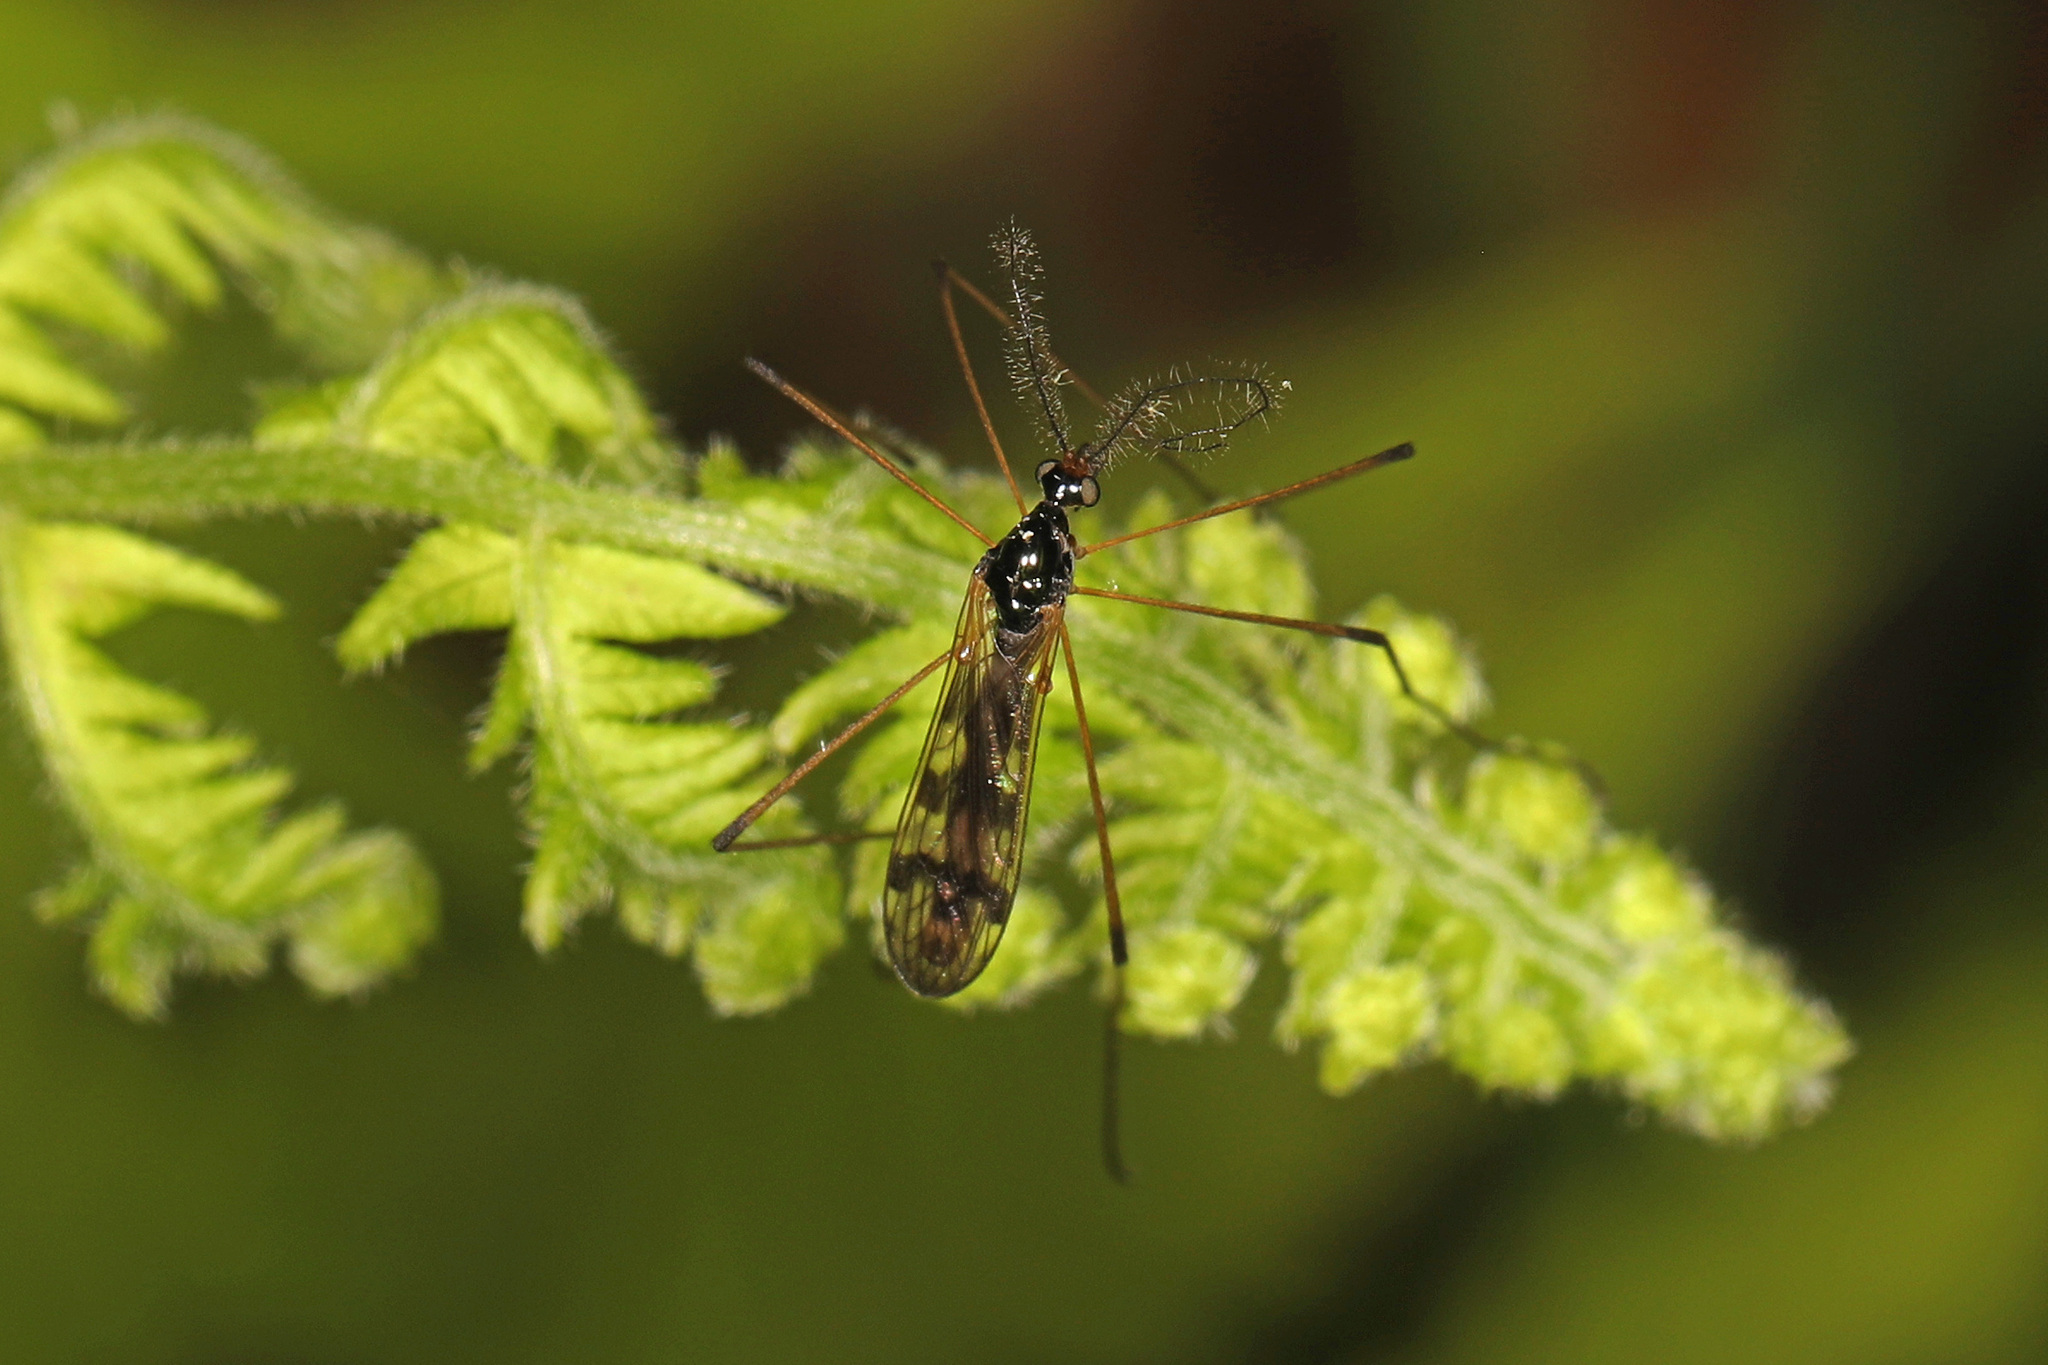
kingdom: Animalia
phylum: Arthropoda
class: Insecta
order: Diptera
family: Limoniidae
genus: Limnophila
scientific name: Limnophila macrocera
